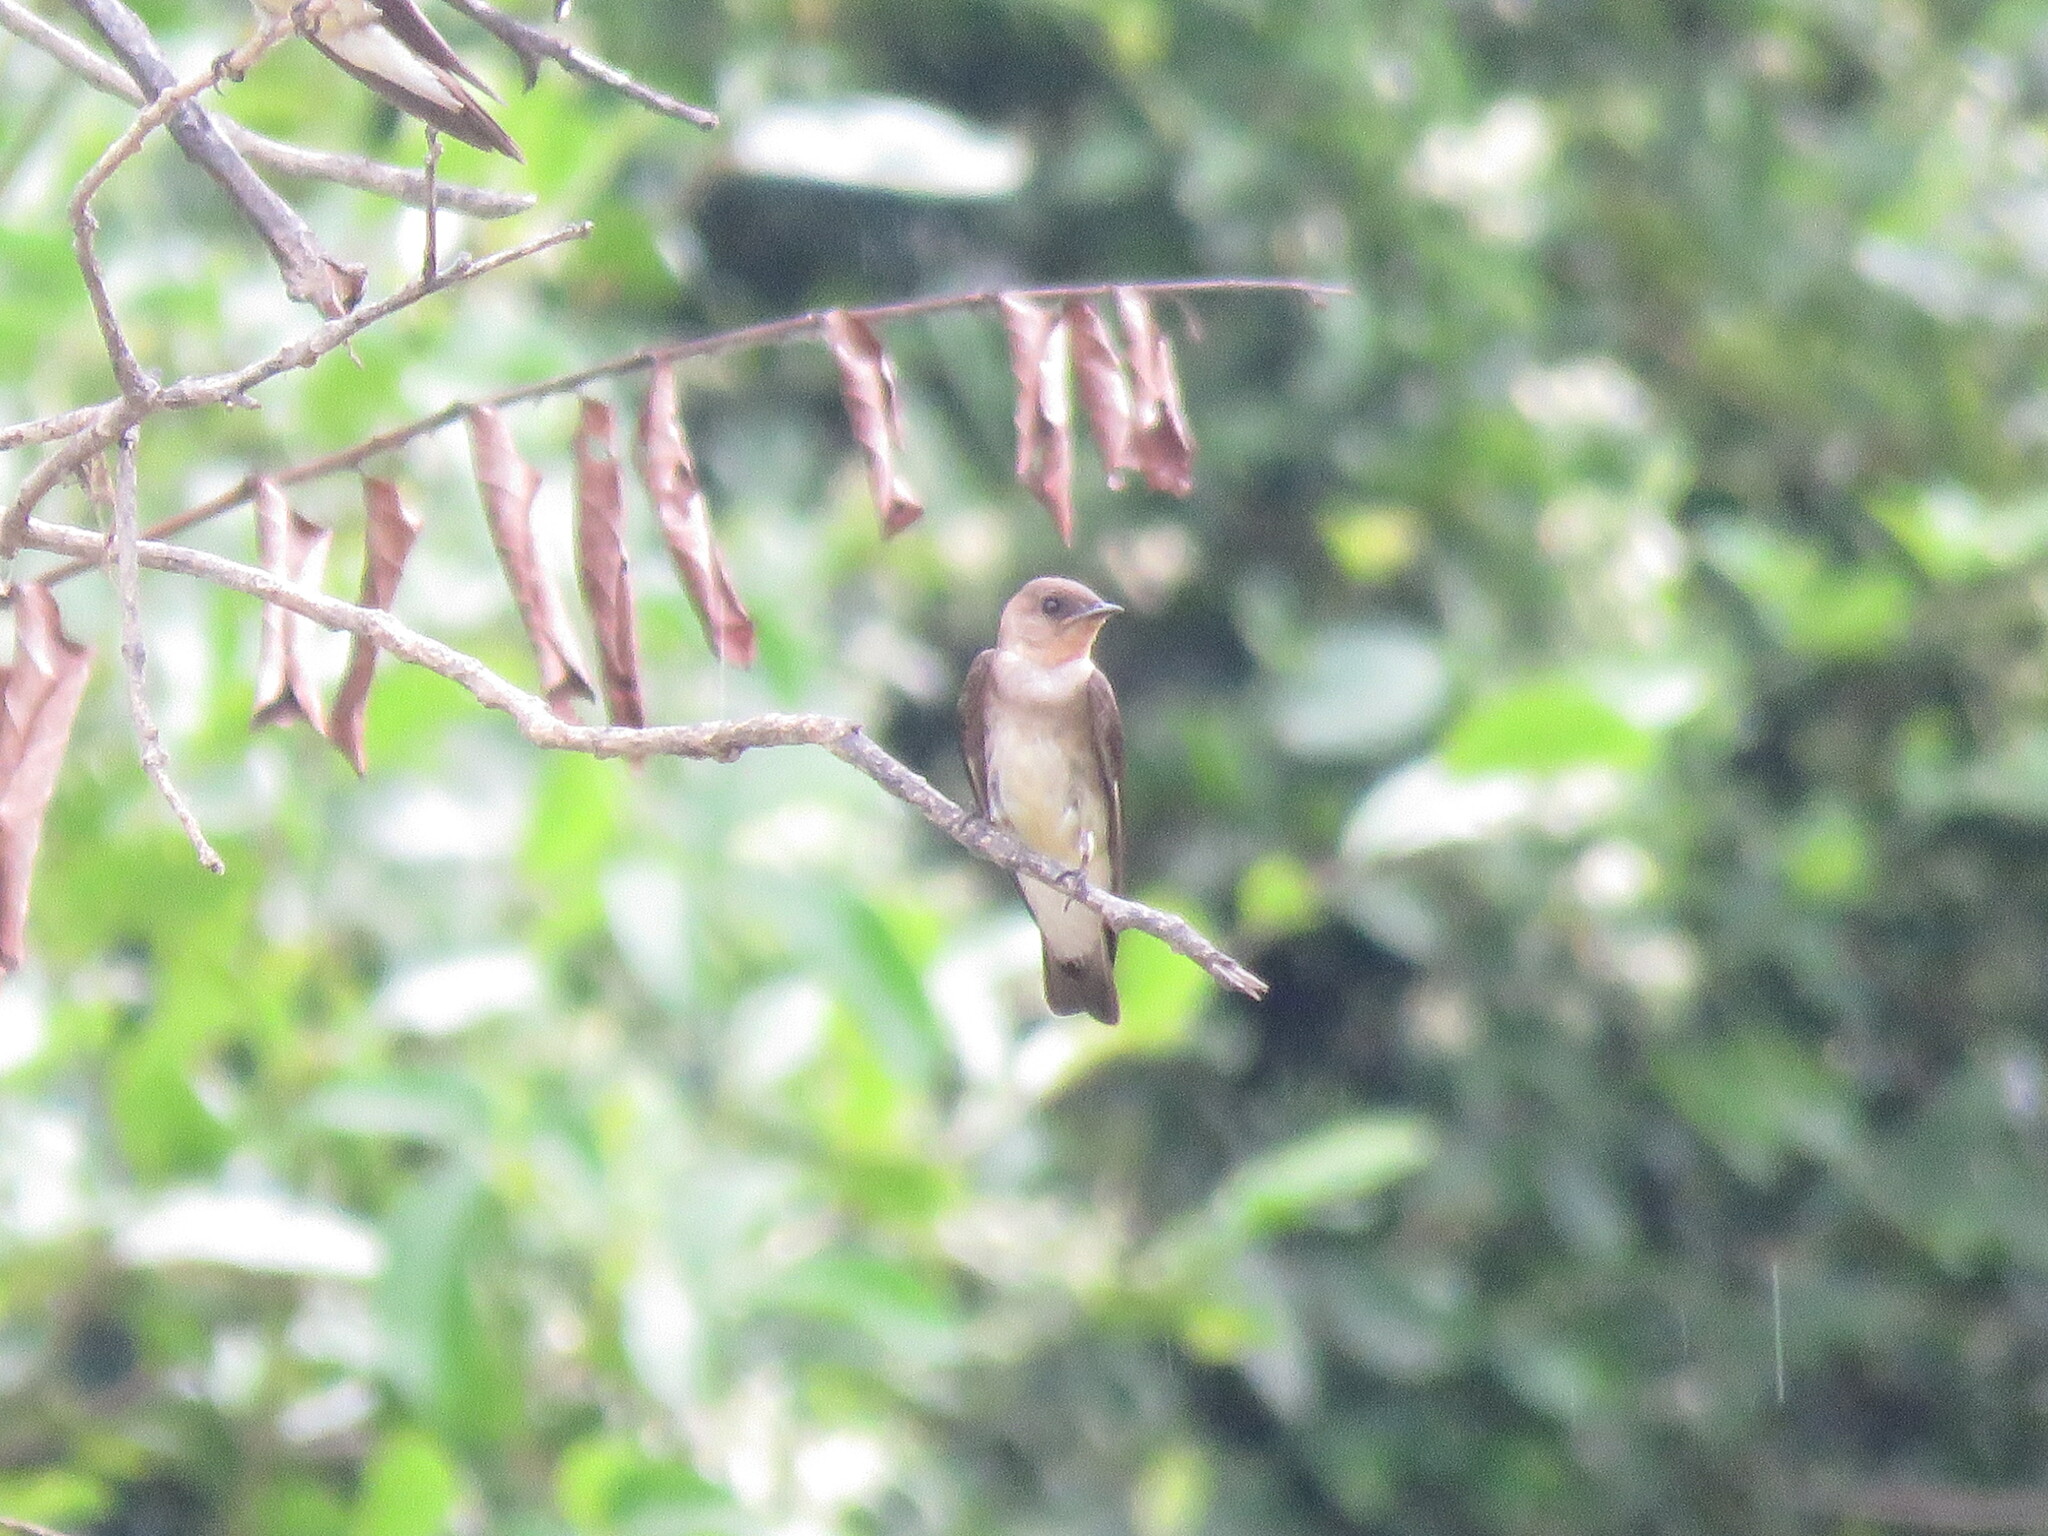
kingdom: Animalia
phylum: Chordata
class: Aves
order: Passeriformes
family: Hirundinidae
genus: Stelgidopteryx
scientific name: Stelgidopteryx ruficollis
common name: Southern rough-winged swallow
